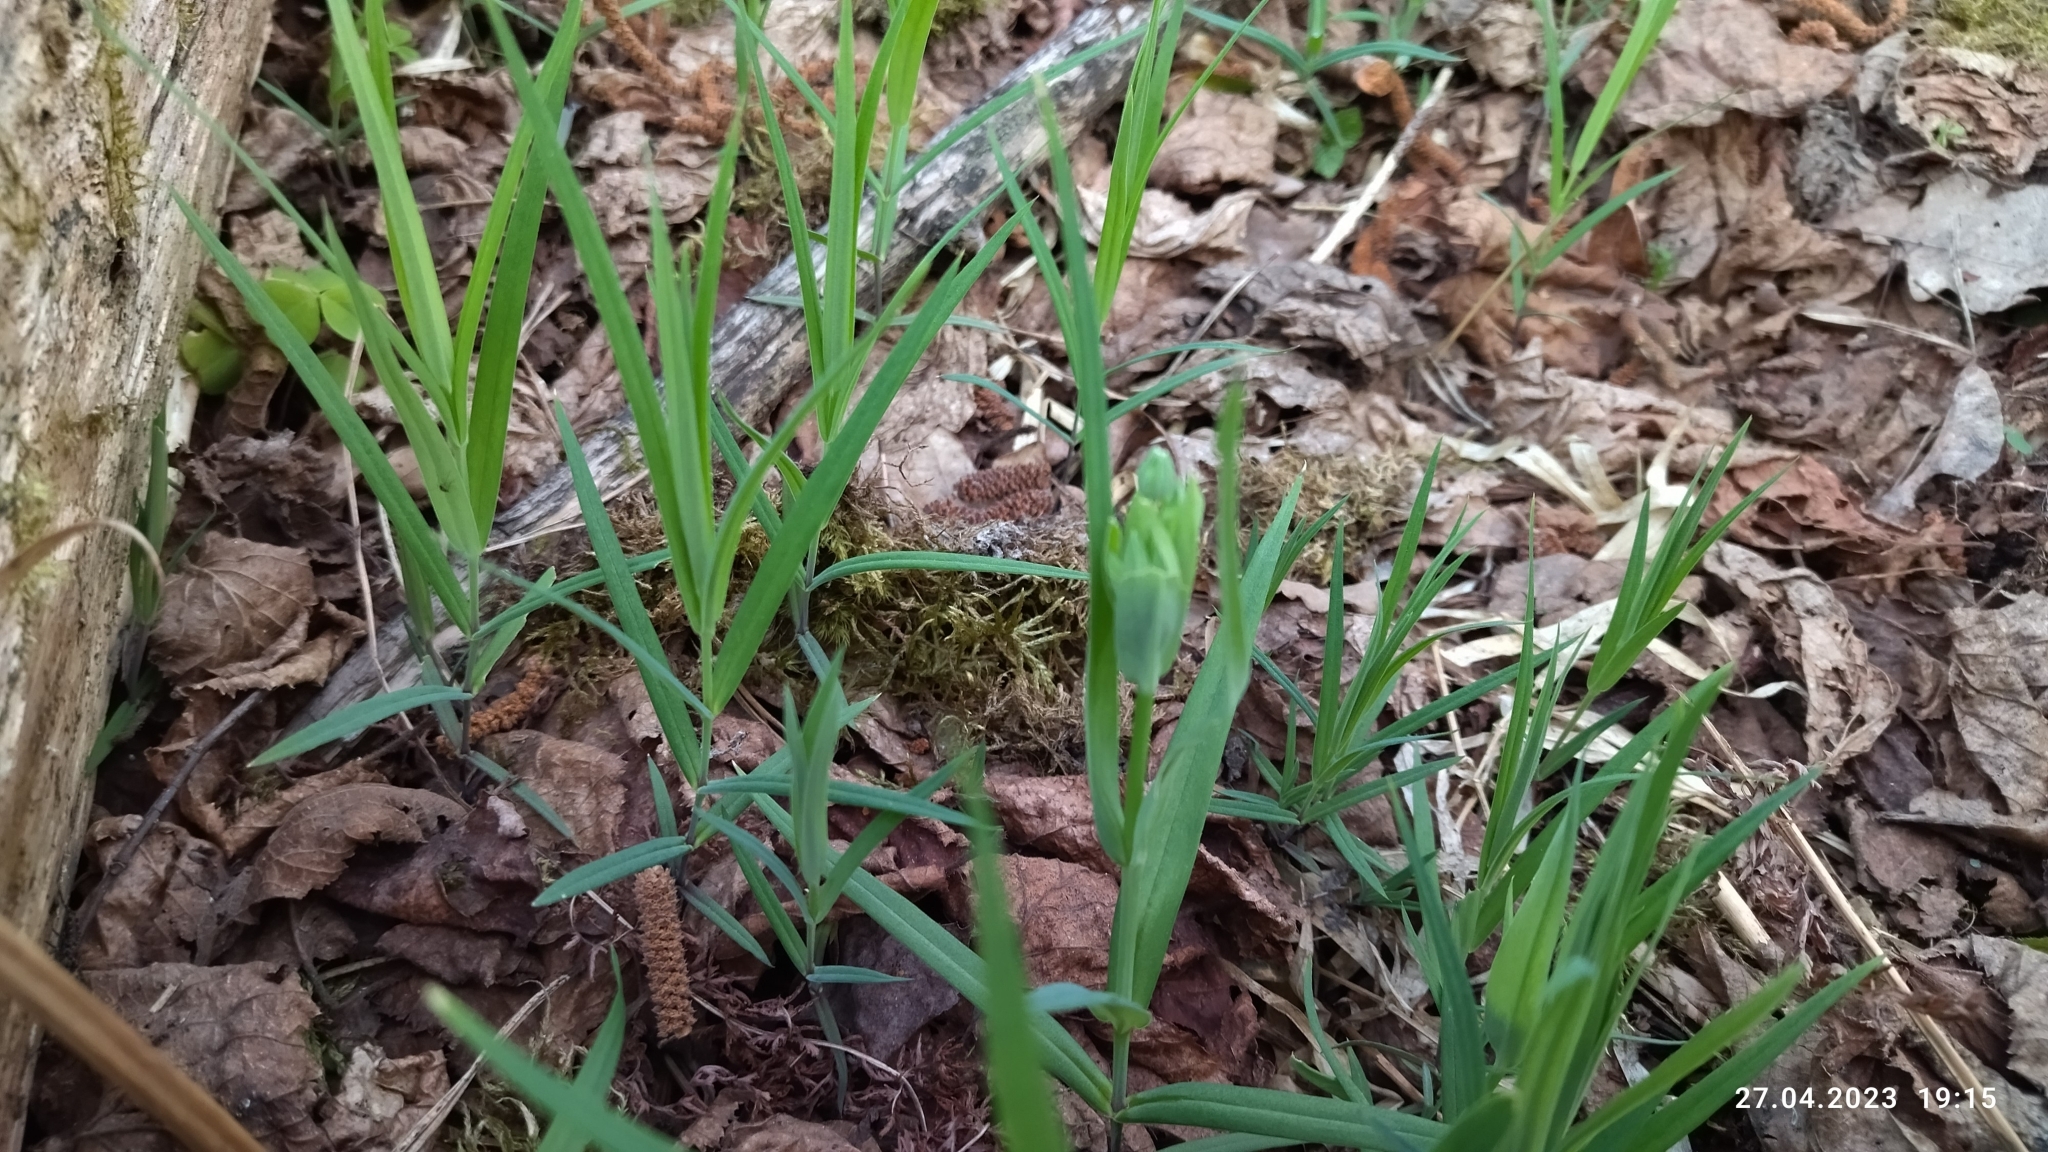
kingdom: Plantae
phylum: Tracheophyta
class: Magnoliopsida
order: Caryophyllales
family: Caryophyllaceae
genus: Rabelera
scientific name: Rabelera holostea
